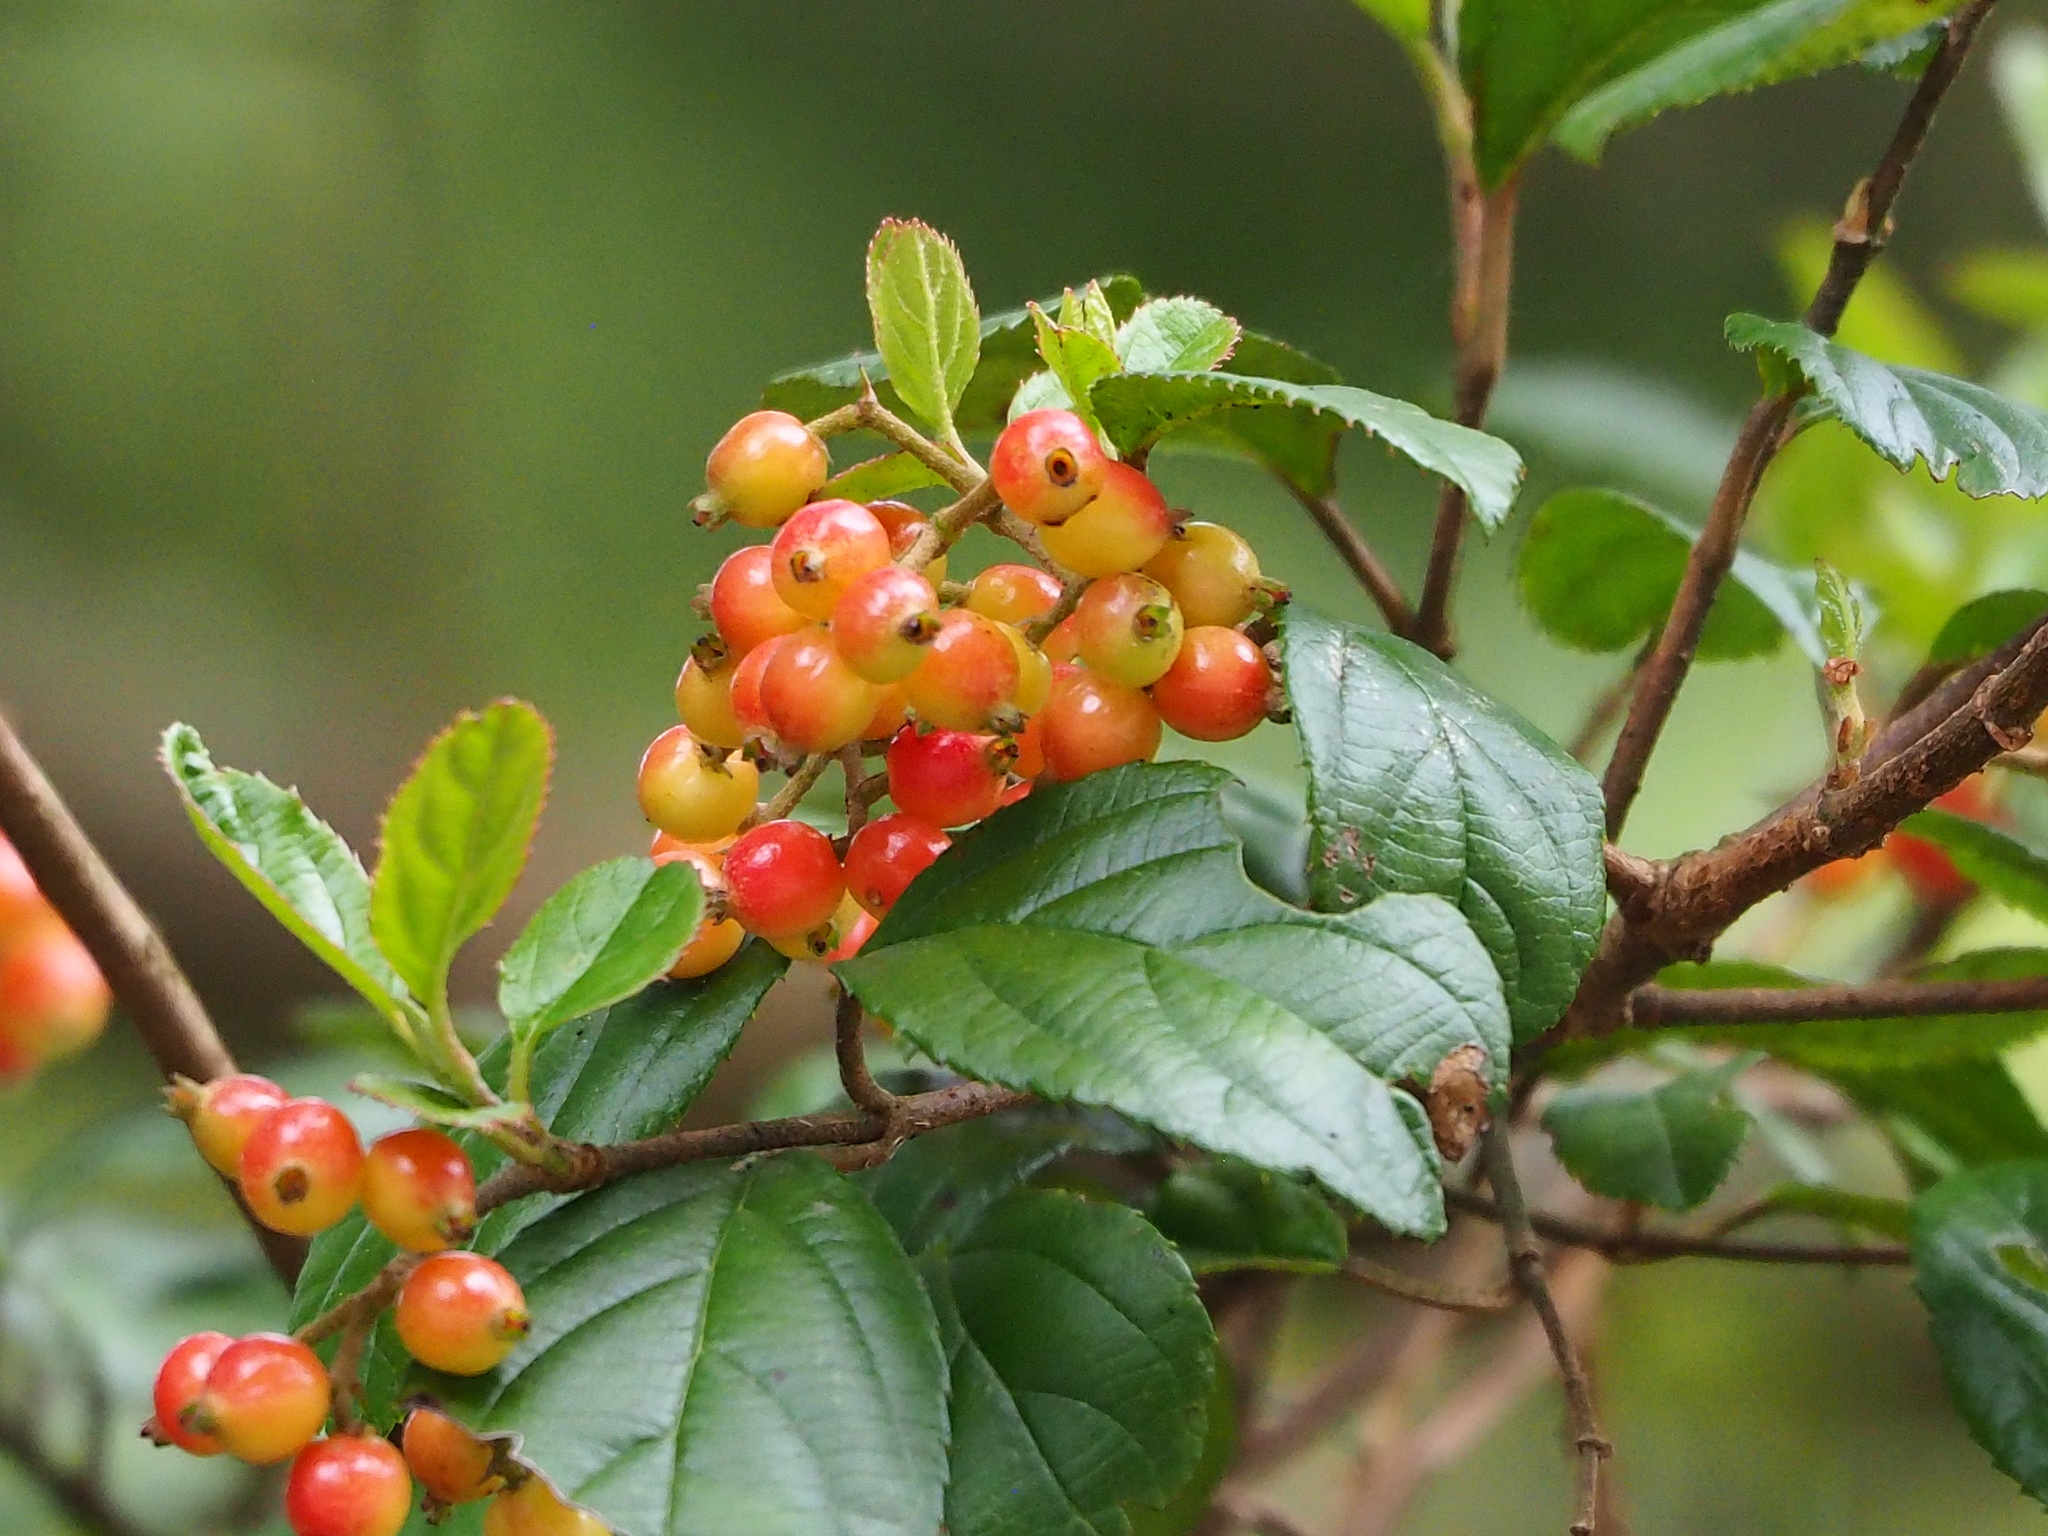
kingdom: Plantae
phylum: Tracheophyta
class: Magnoliopsida
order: Dipsacales
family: Viburnaceae
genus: Viburnum
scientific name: Viburnum taitoense
